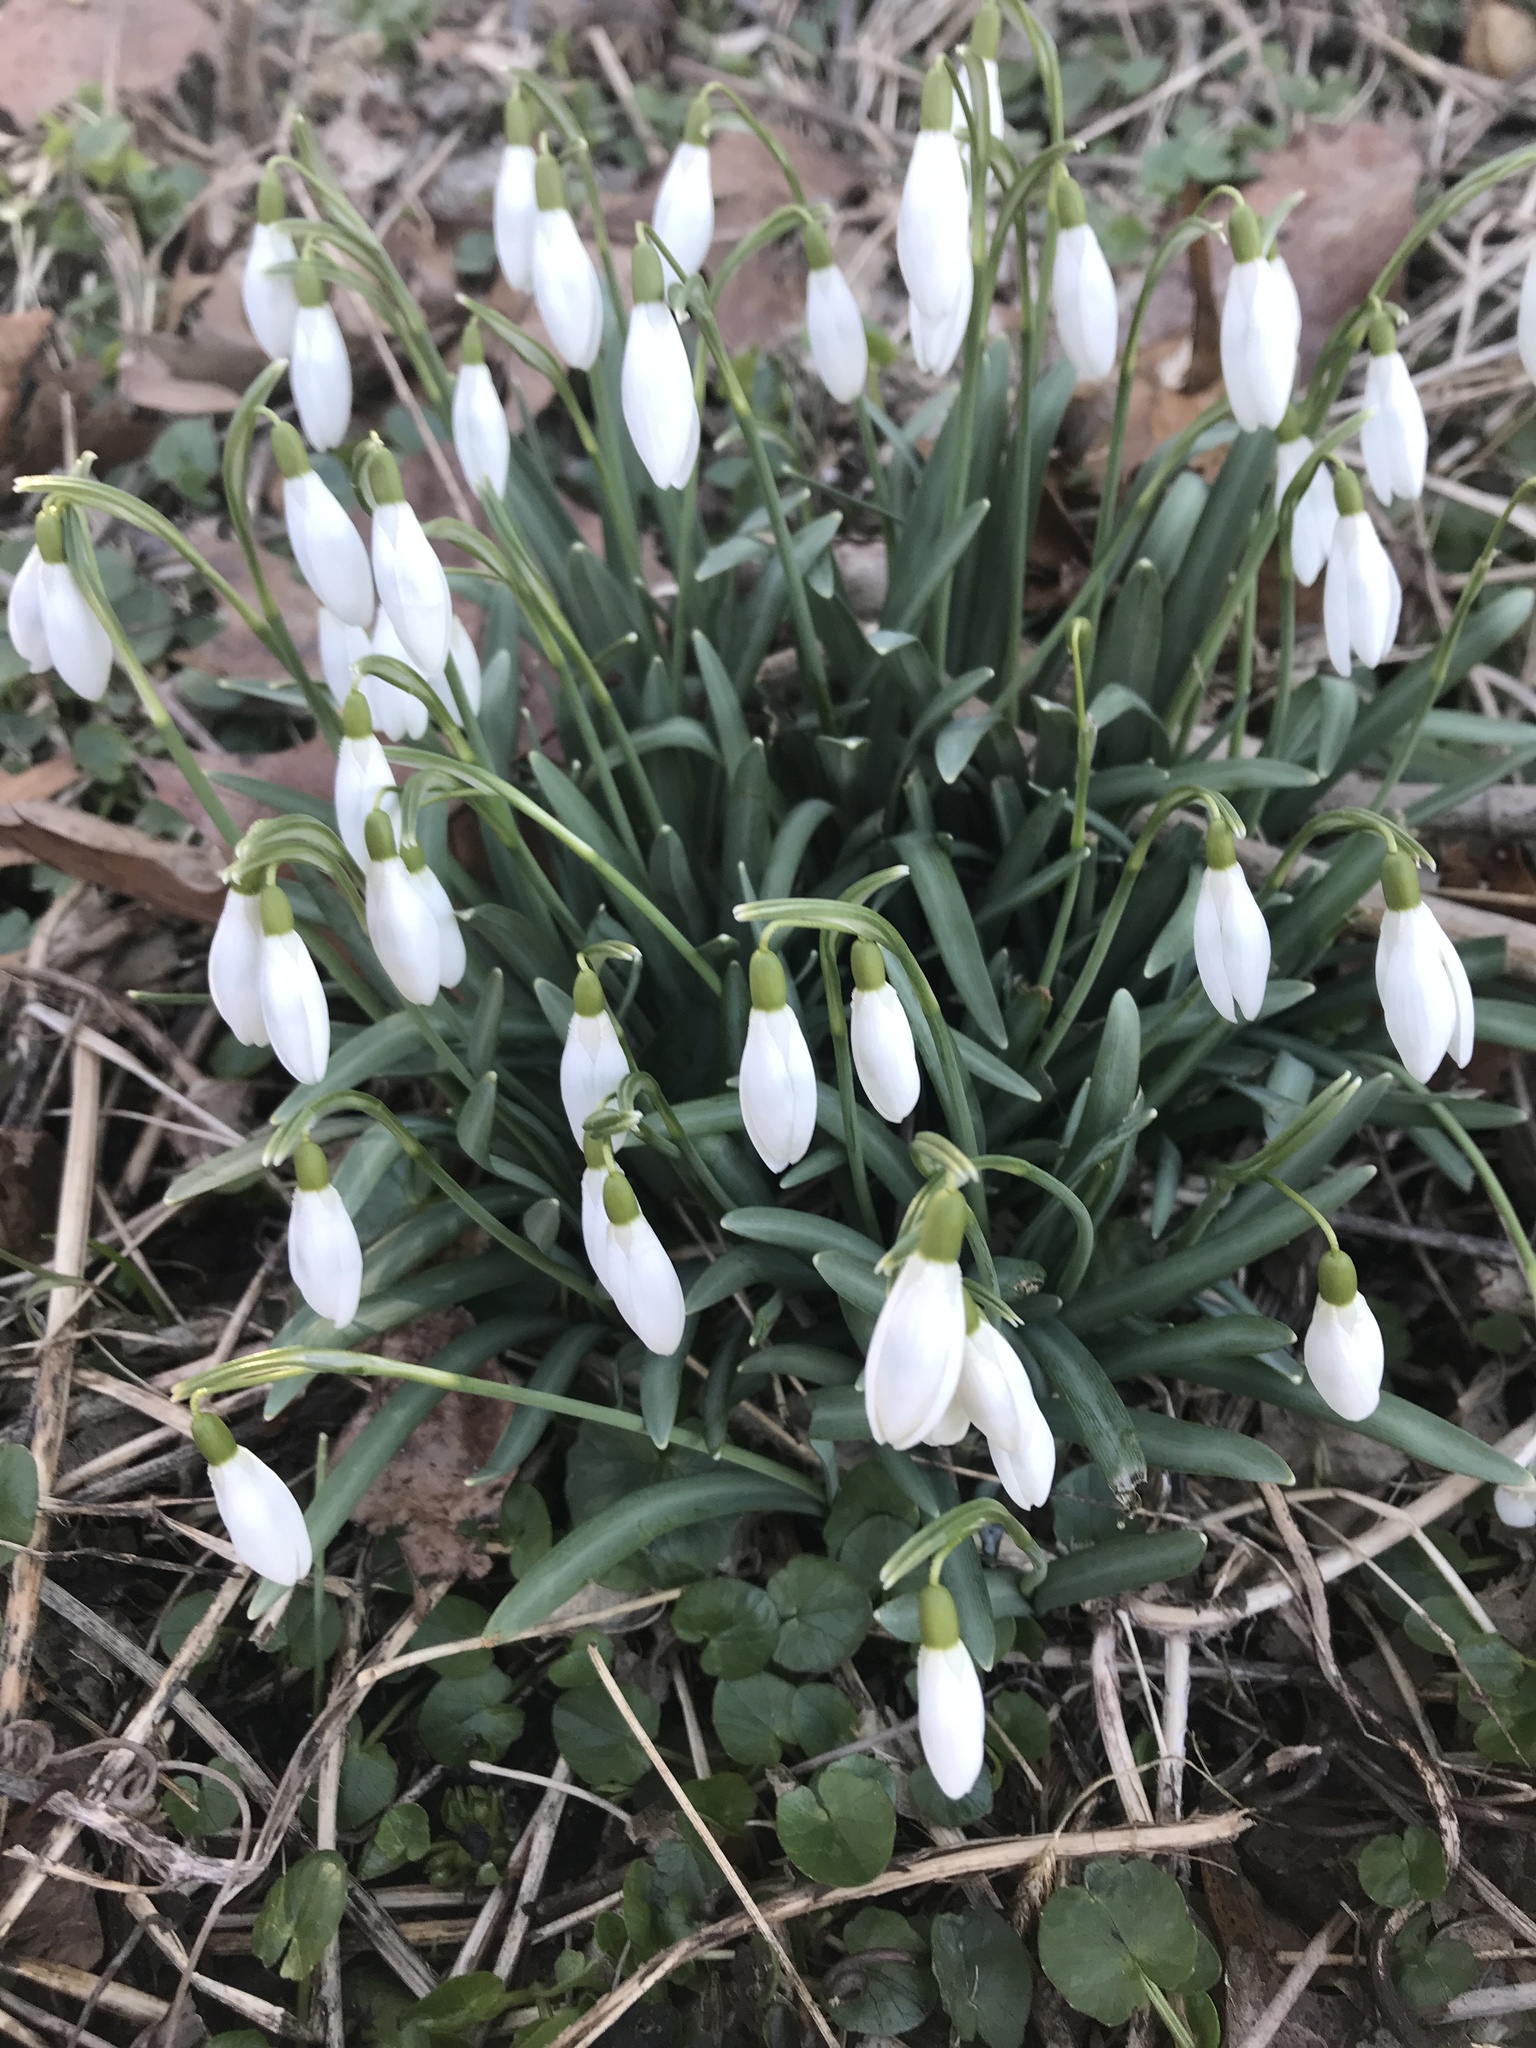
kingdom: Plantae
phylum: Tracheophyta
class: Liliopsida
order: Asparagales
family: Amaryllidaceae
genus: Galanthus
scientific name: Galanthus nivalis
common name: Snowdrop
